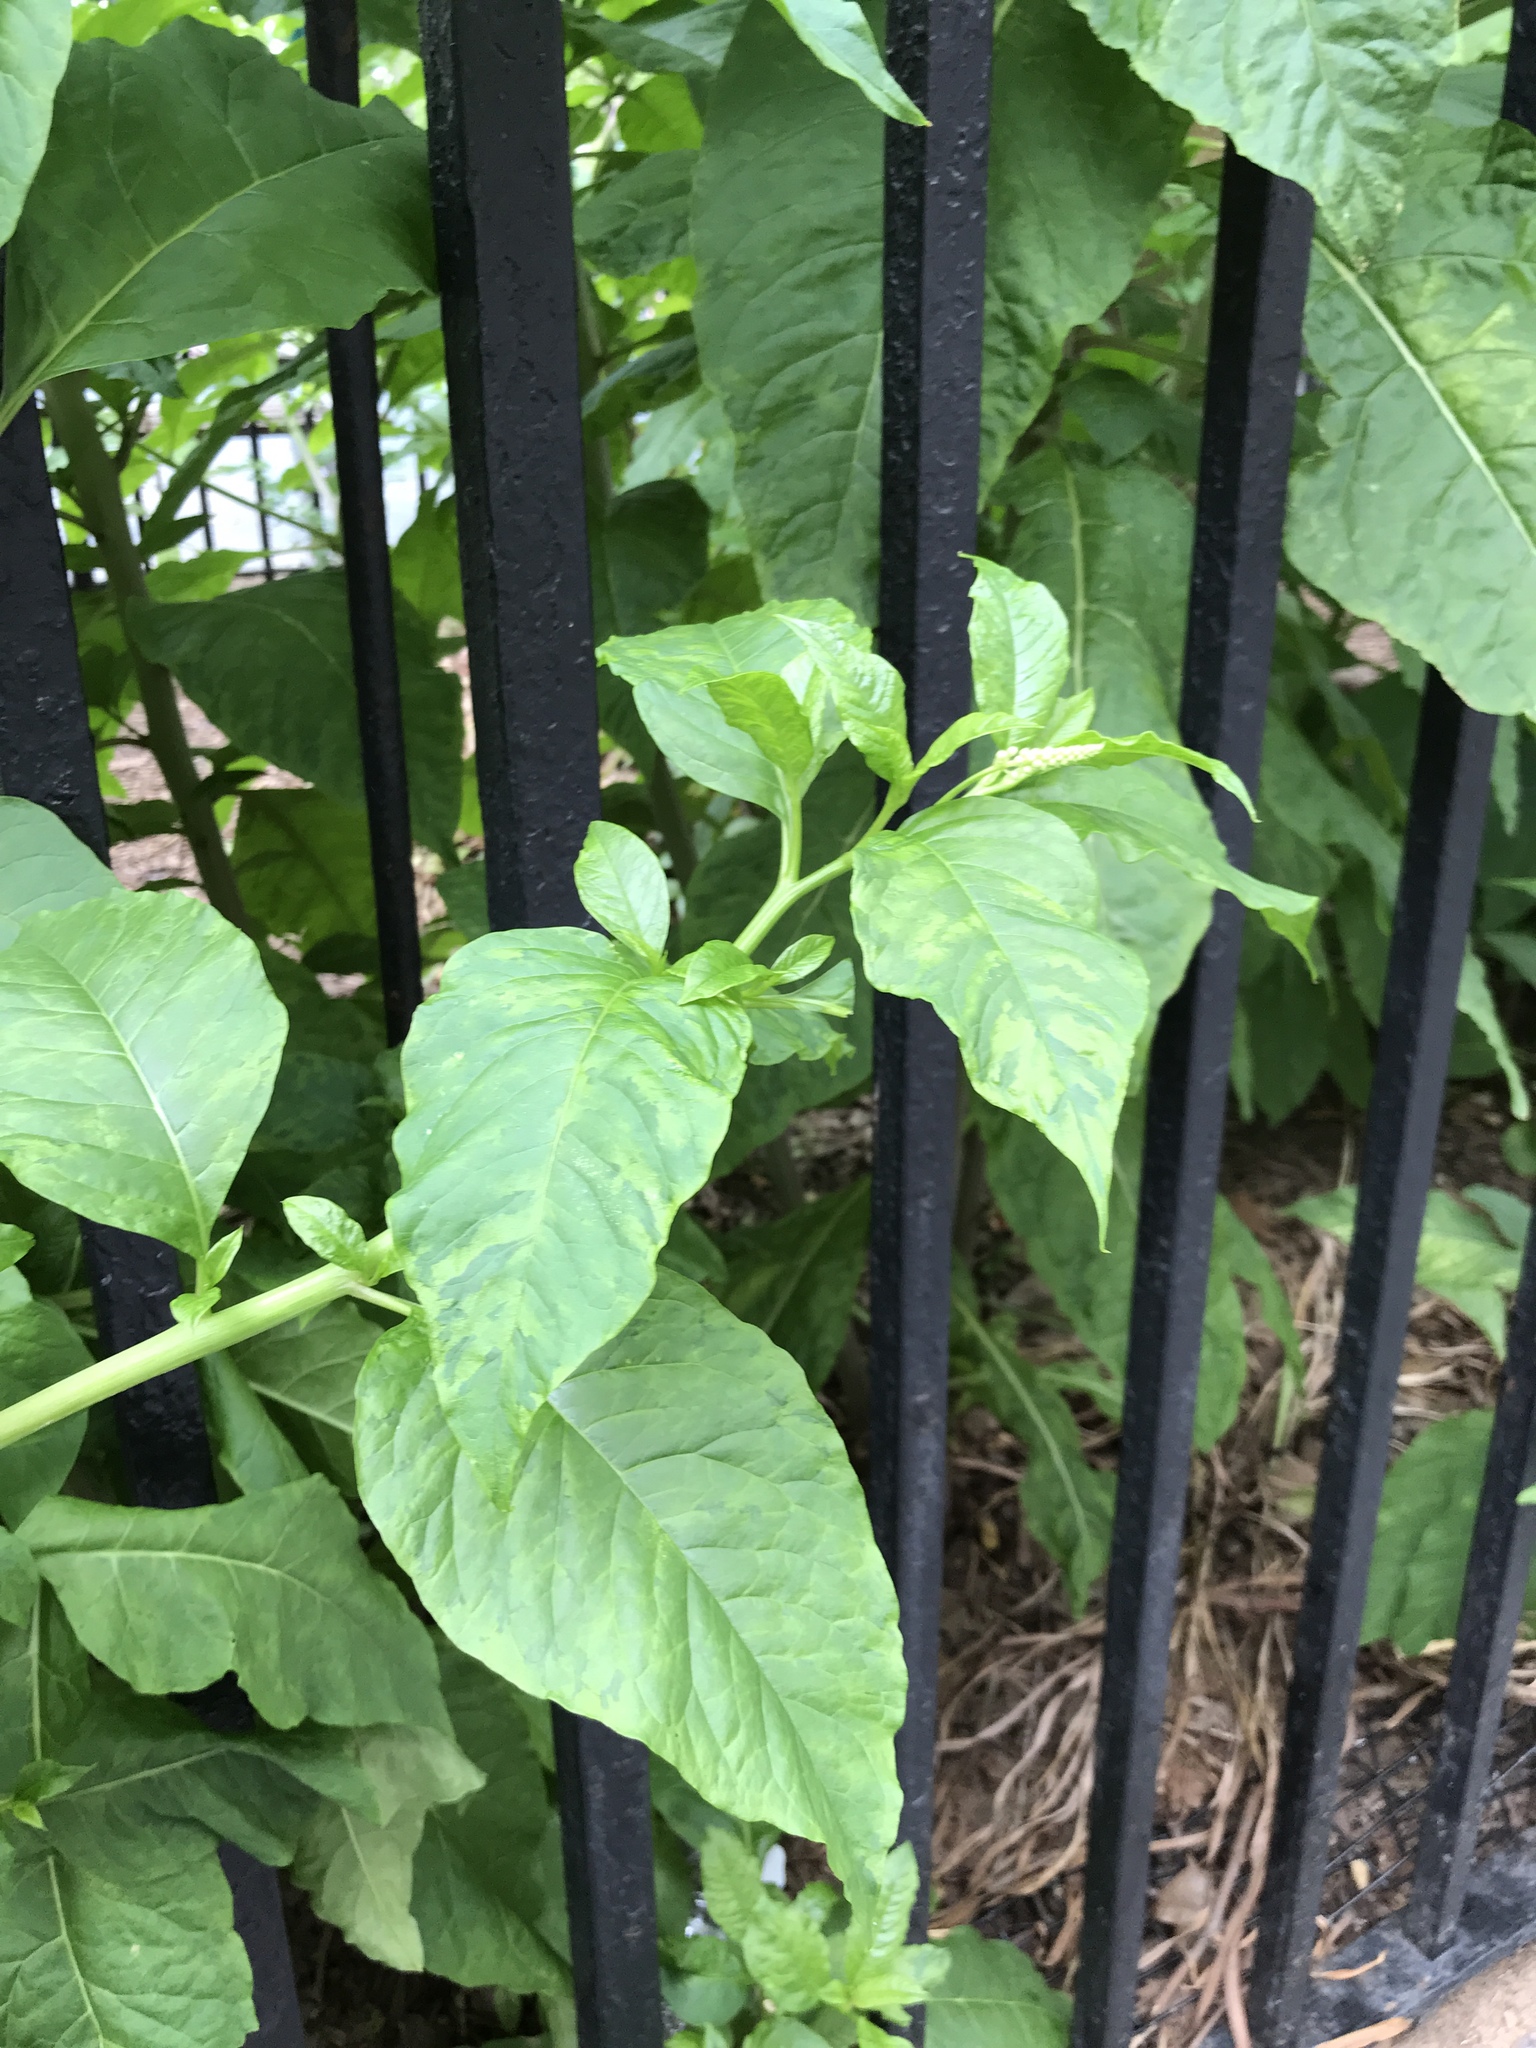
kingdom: Plantae
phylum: Tracheophyta
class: Magnoliopsida
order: Caryophyllales
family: Phytolaccaceae
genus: Phytolacca
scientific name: Phytolacca americana
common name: American pokeweed
